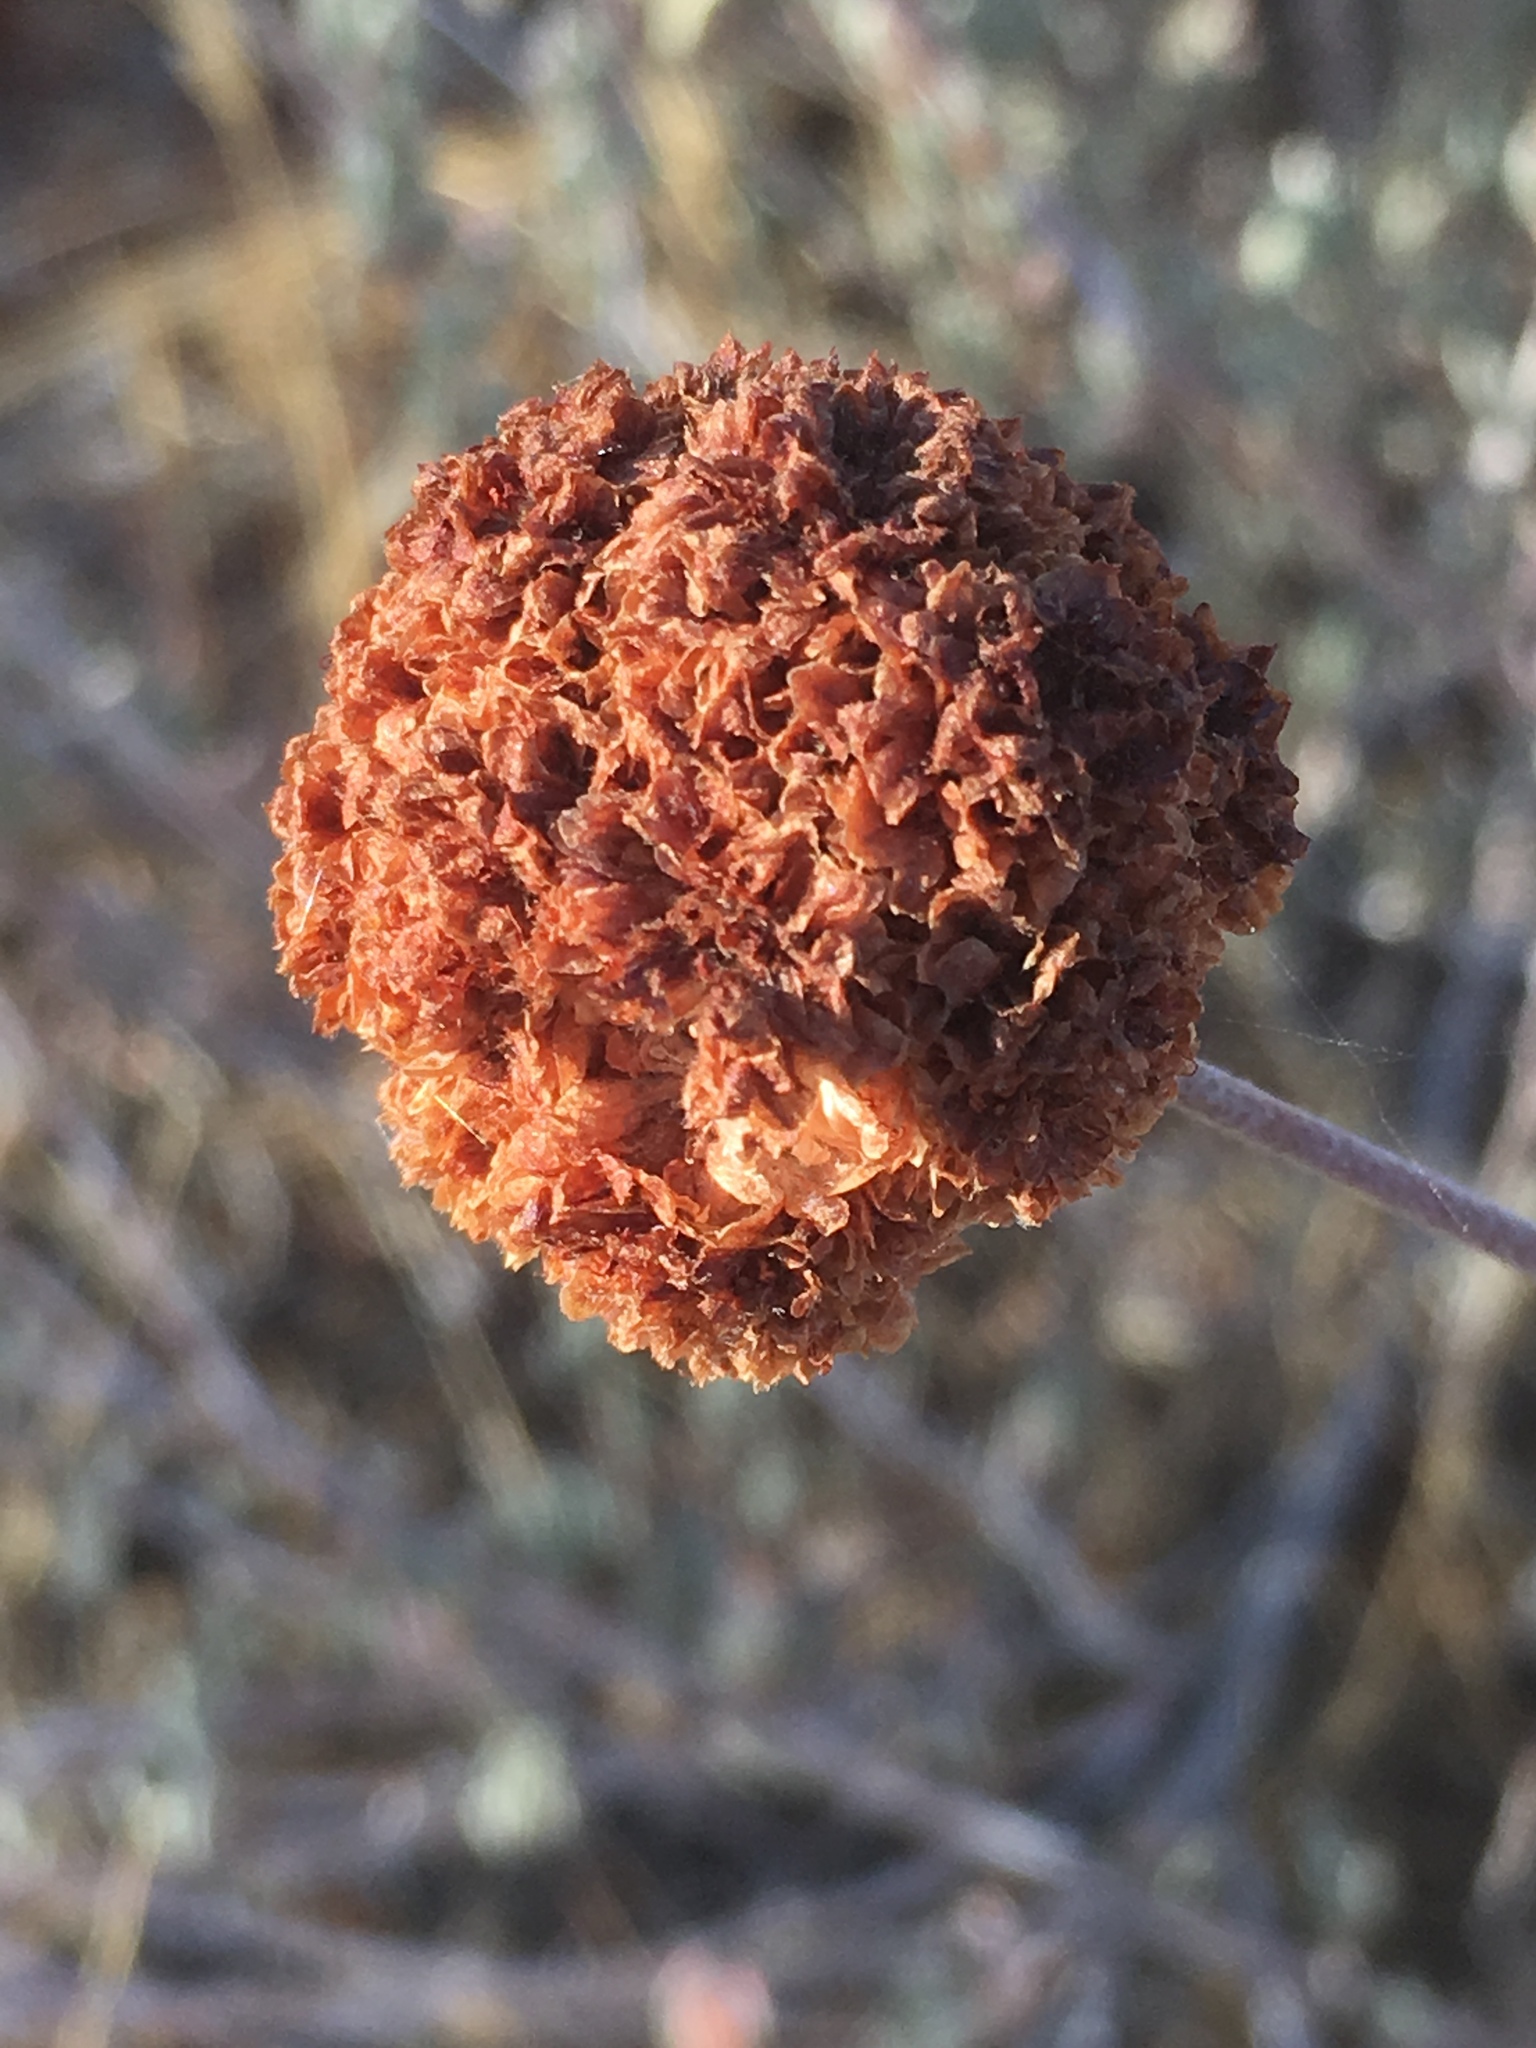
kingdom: Plantae
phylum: Tracheophyta
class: Magnoliopsida
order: Caryophyllales
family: Polygonaceae
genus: Eriogonum
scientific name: Eriogonum fasciculatum
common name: California wild buckwheat
